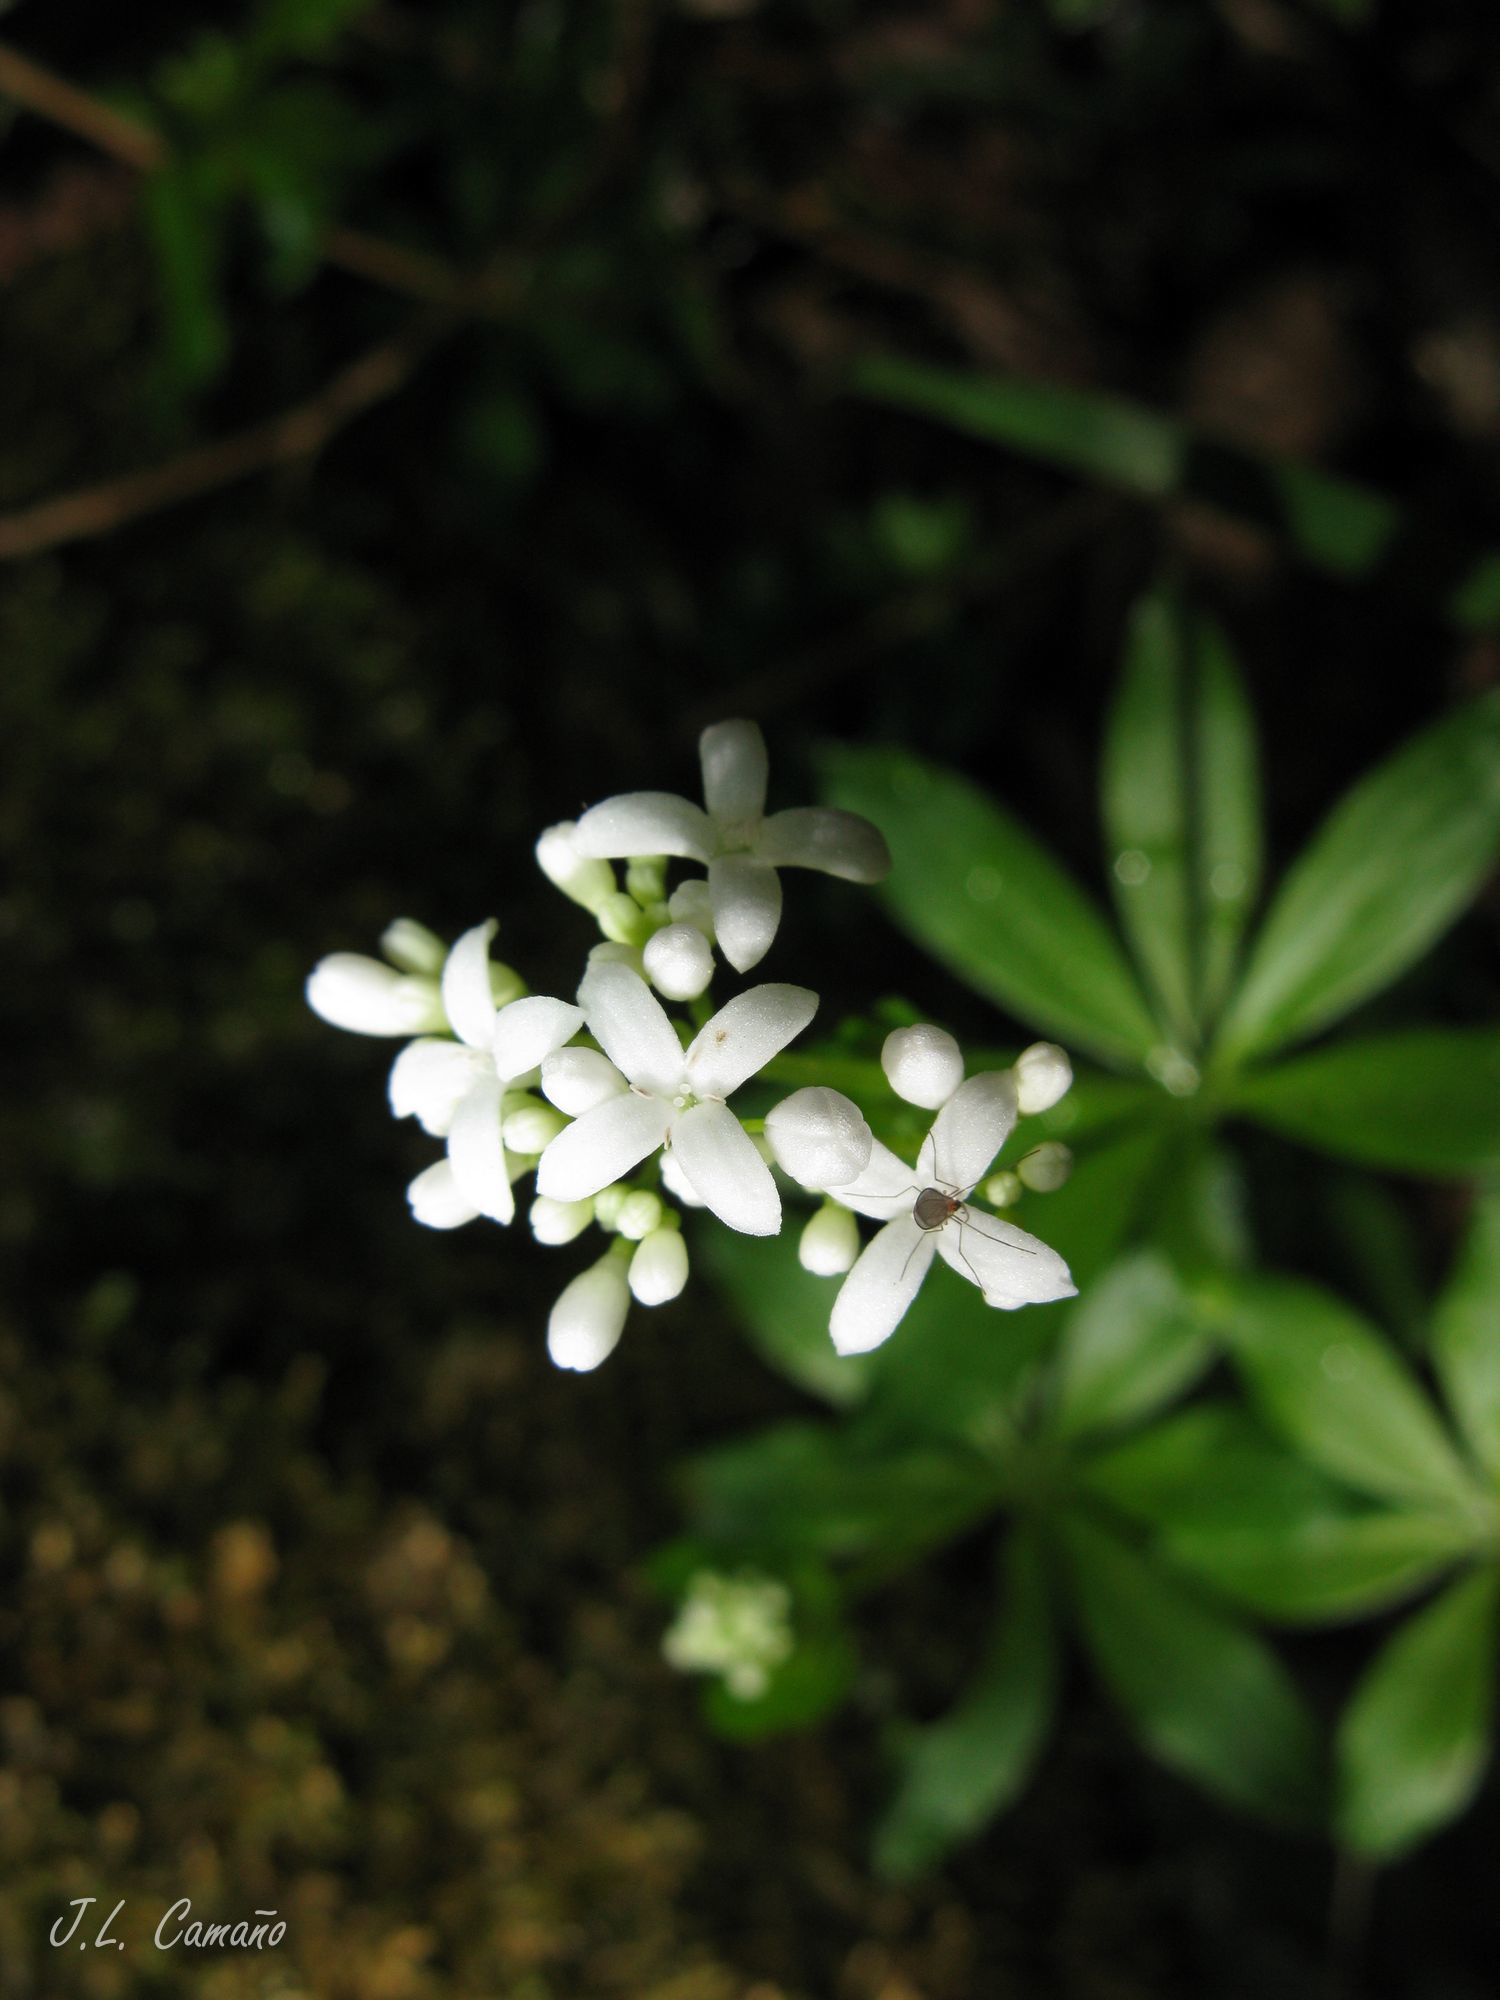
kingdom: Plantae
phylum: Tracheophyta
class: Magnoliopsida
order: Gentianales
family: Rubiaceae
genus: Galium
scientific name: Galium odoratum
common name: Sweet woodruff
